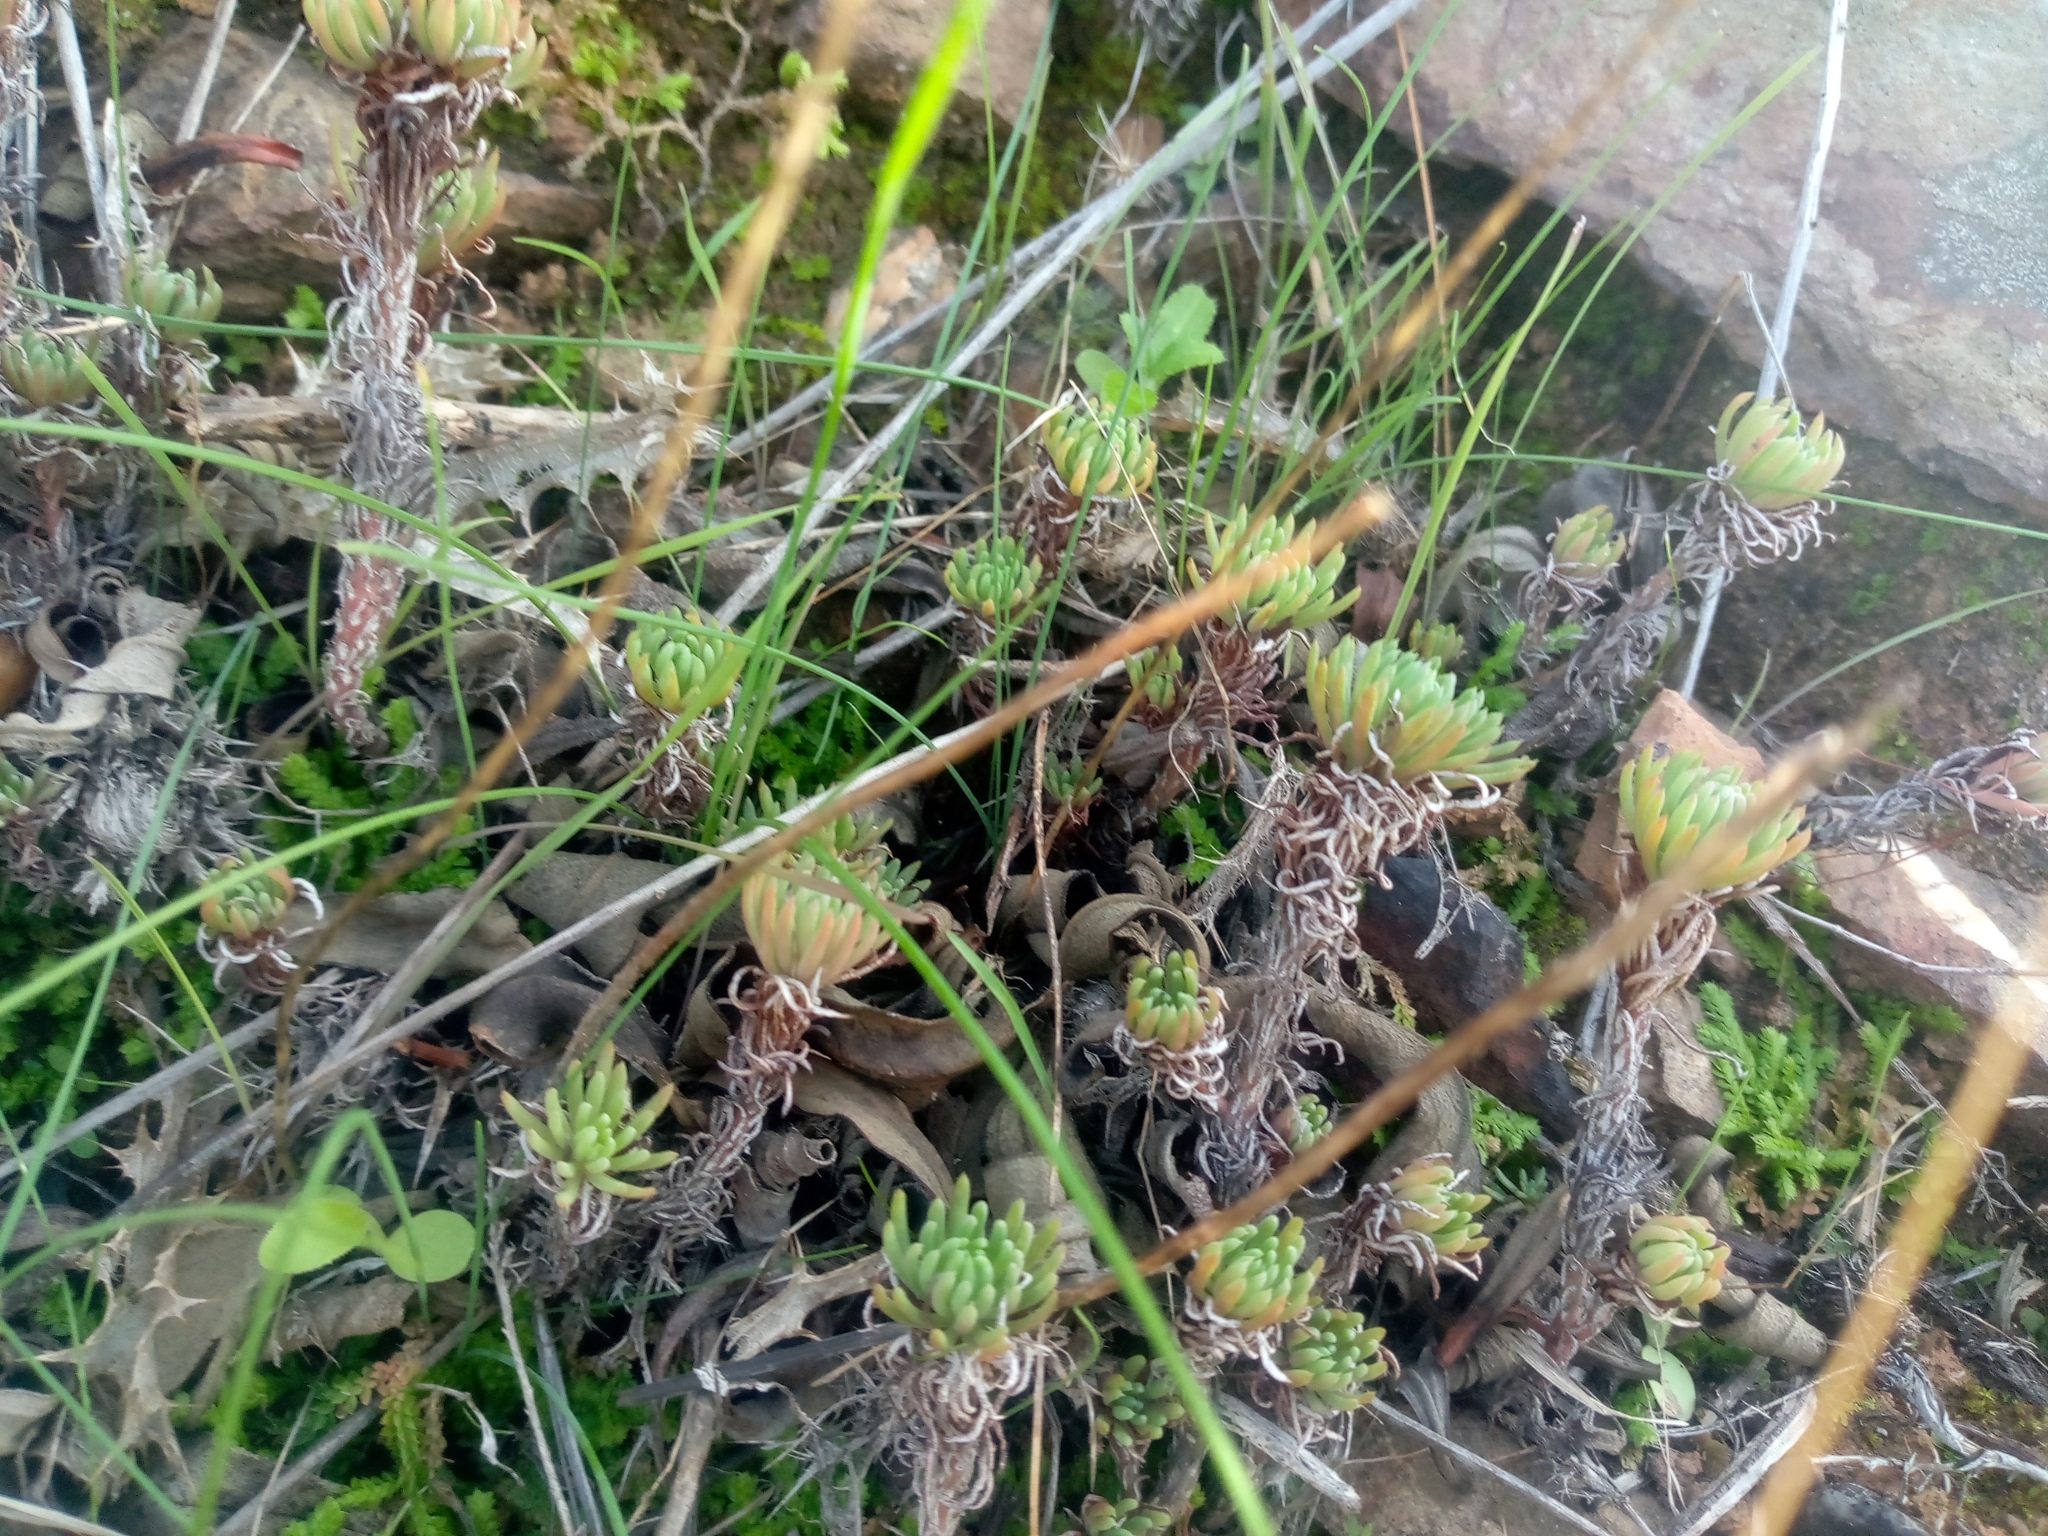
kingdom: Plantae
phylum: Tracheophyta
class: Magnoliopsida
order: Saxifragales
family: Crassulaceae
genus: Petrosedum
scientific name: Petrosedum forsterianum
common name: Forster's stonecrop
